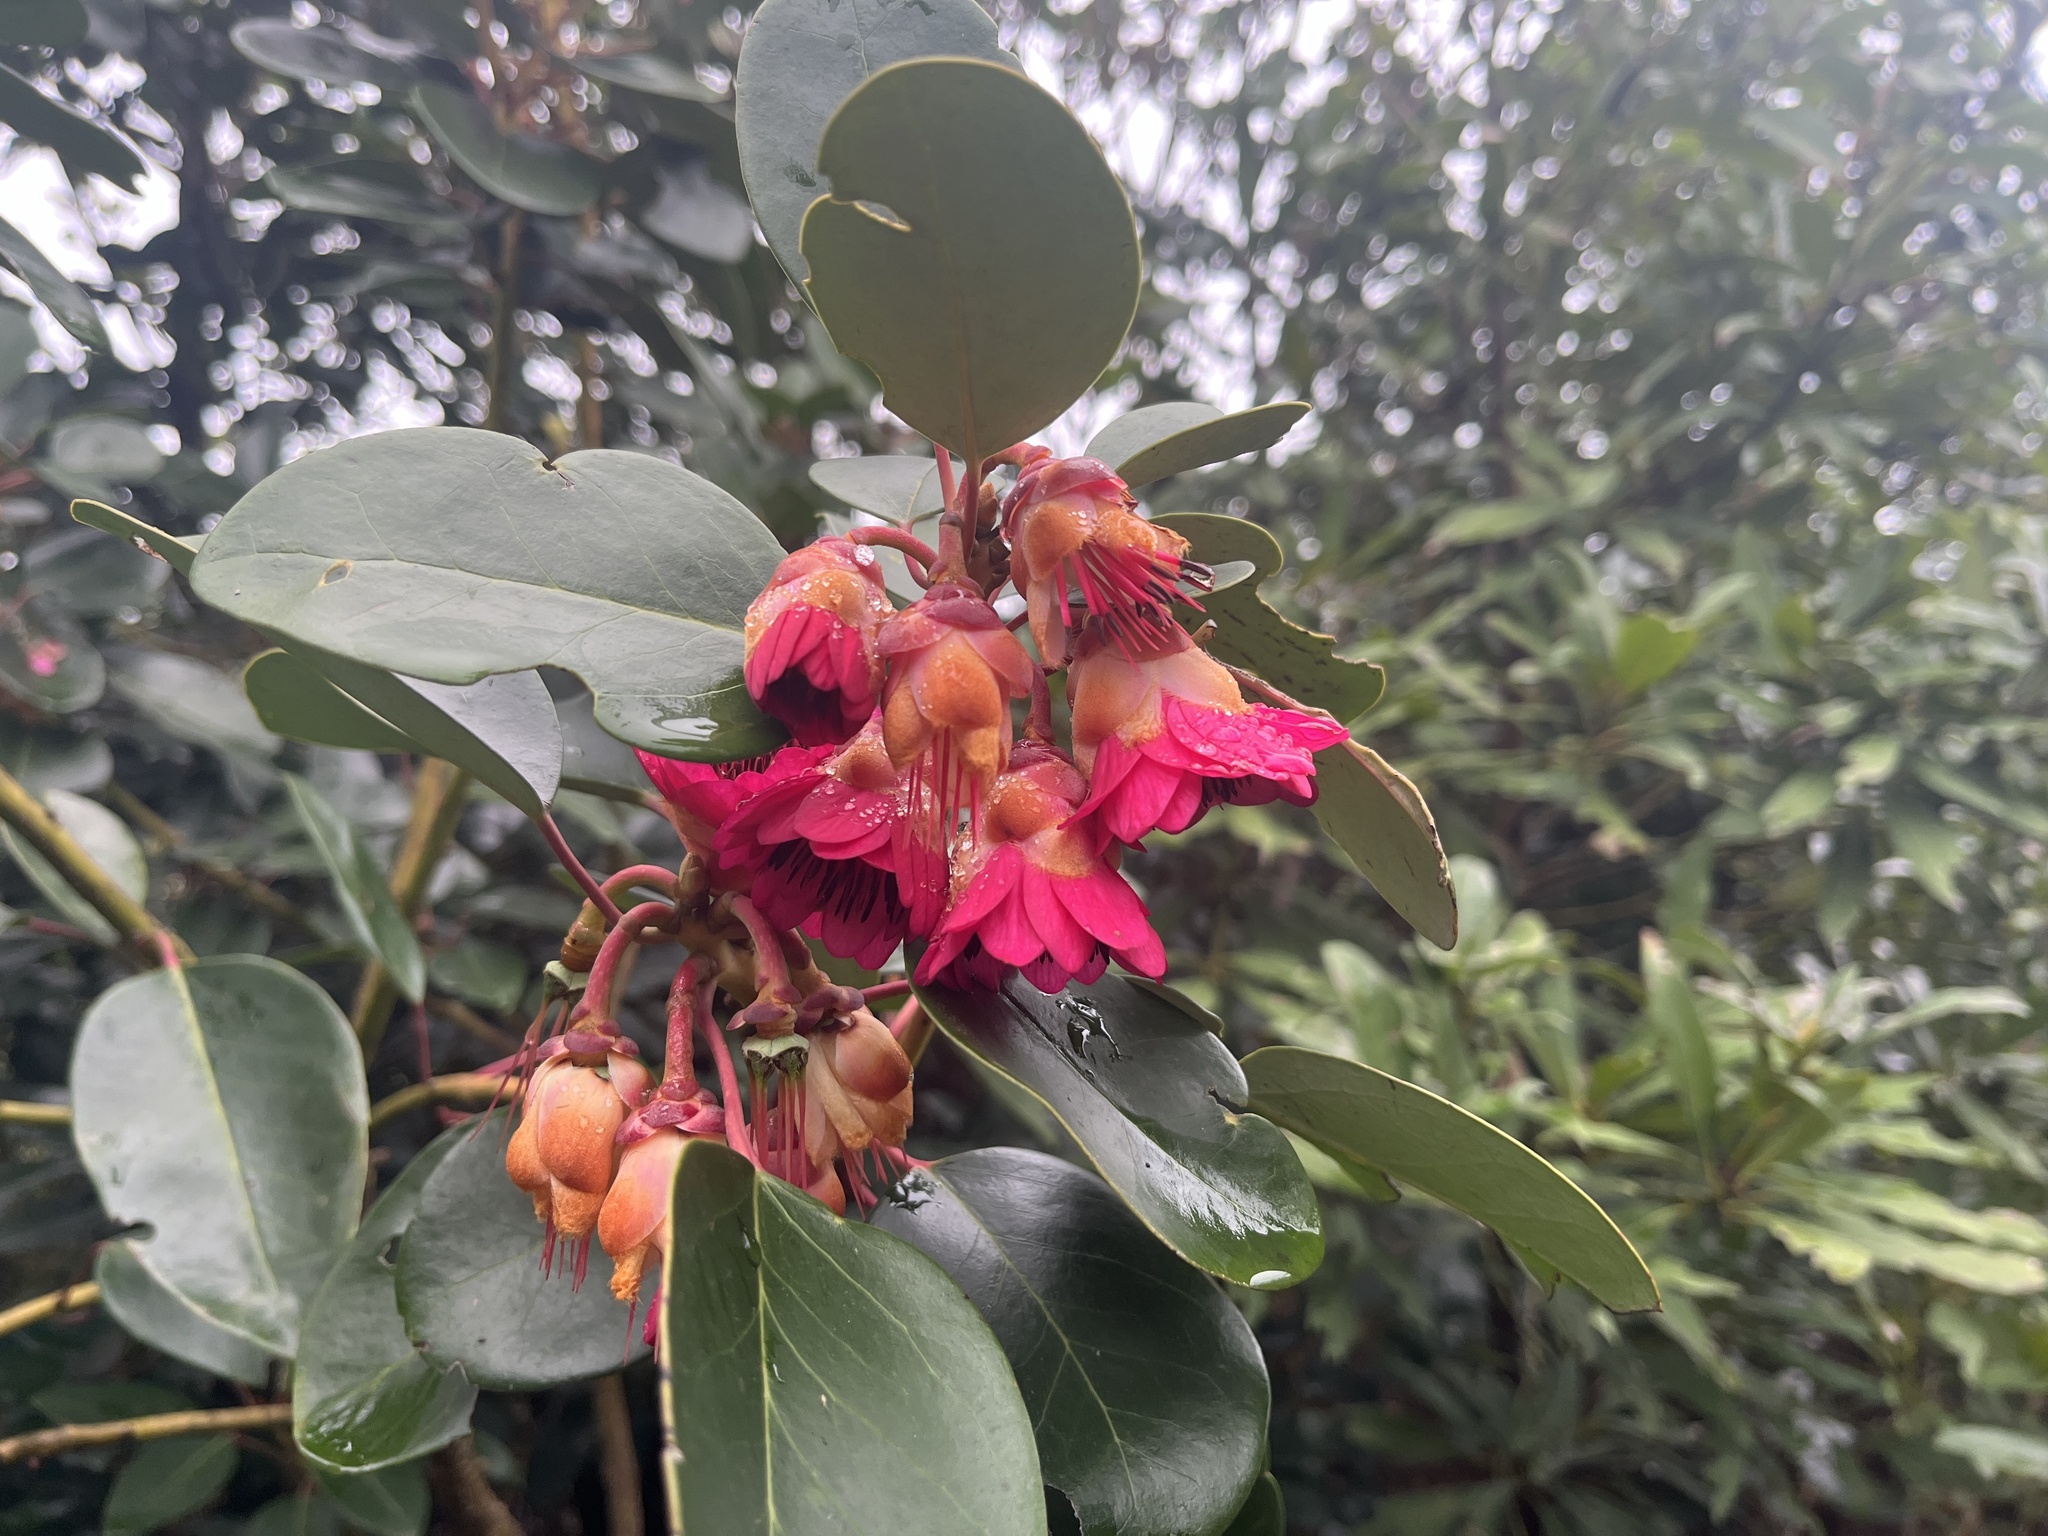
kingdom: Plantae
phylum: Tracheophyta
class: Magnoliopsida
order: Saxifragales
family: Hamamelidaceae
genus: Rhodoleia
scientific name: Rhodoleia championii
